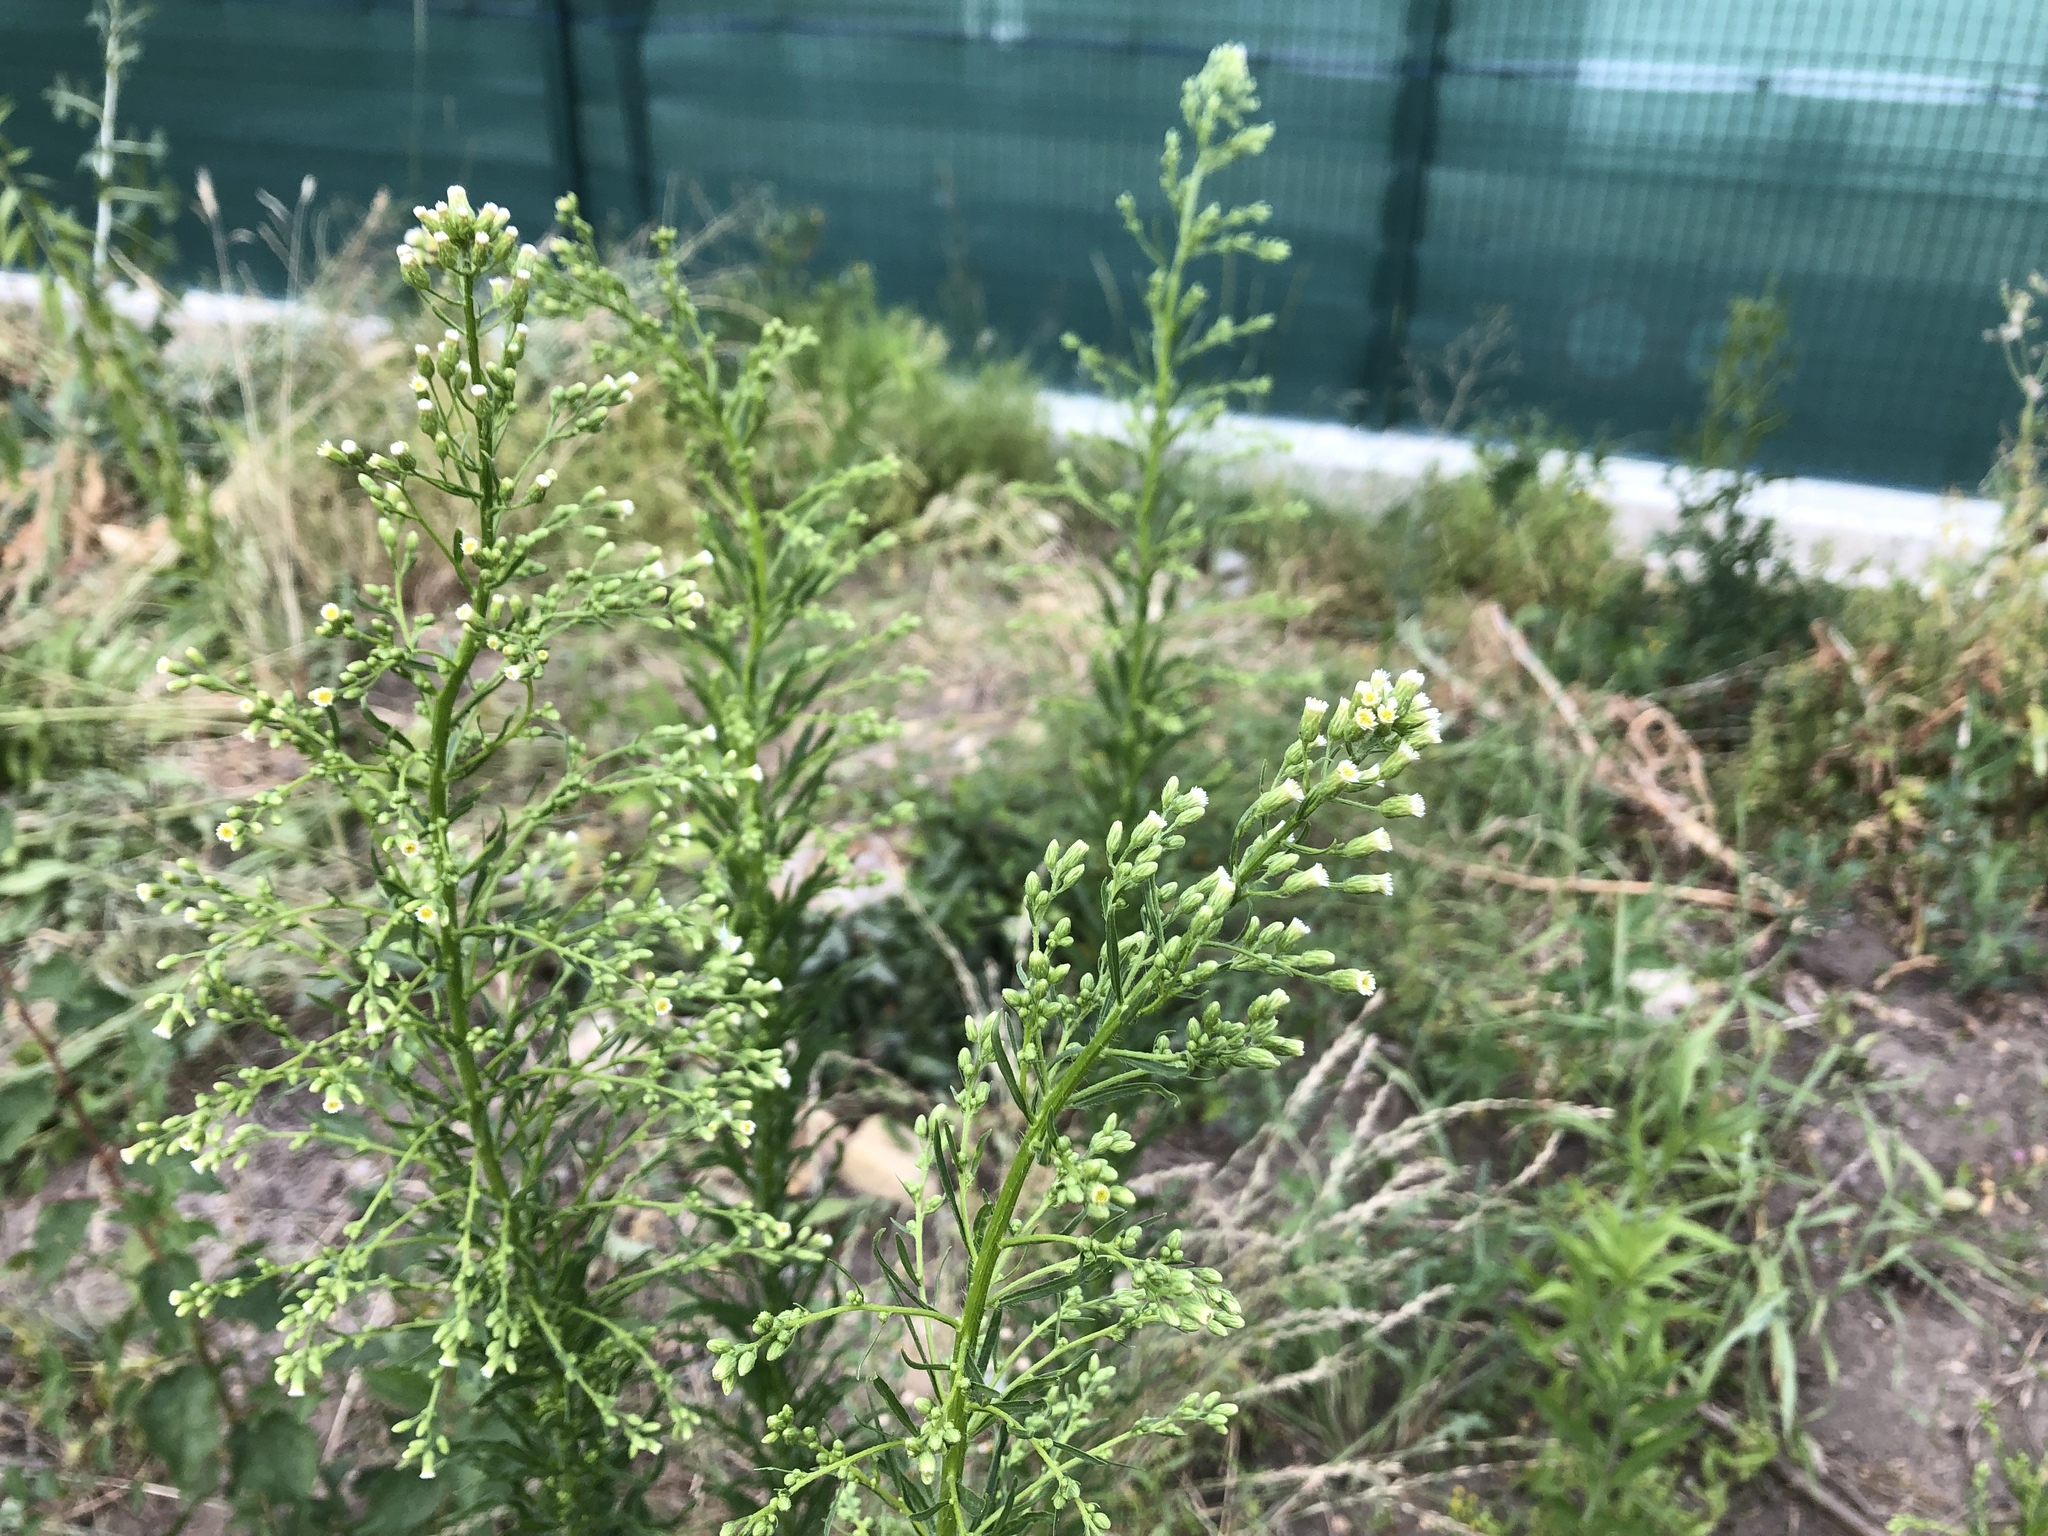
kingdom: Plantae
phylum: Tracheophyta
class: Magnoliopsida
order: Asterales
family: Asteraceae
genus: Erigeron
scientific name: Erigeron canadensis
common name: Canadian fleabane
